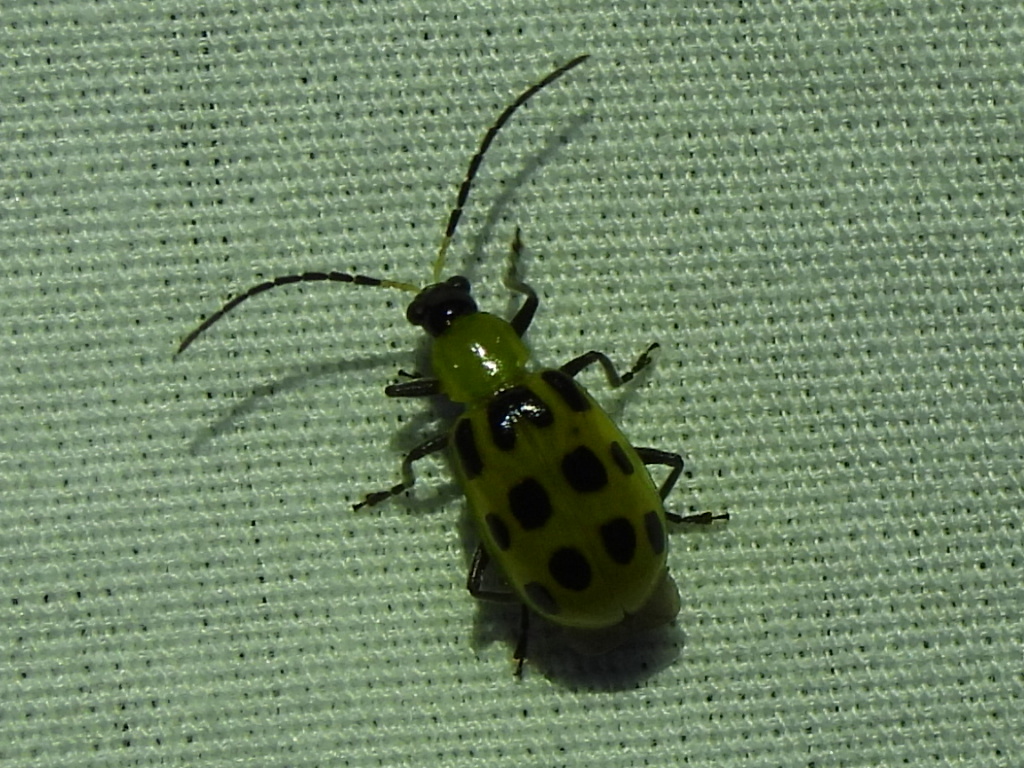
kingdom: Animalia
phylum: Arthropoda
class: Insecta
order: Coleoptera
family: Chrysomelidae
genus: Diabrotica
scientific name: Diabrotica undecimpunctata
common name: Spotted cucumber beetle
